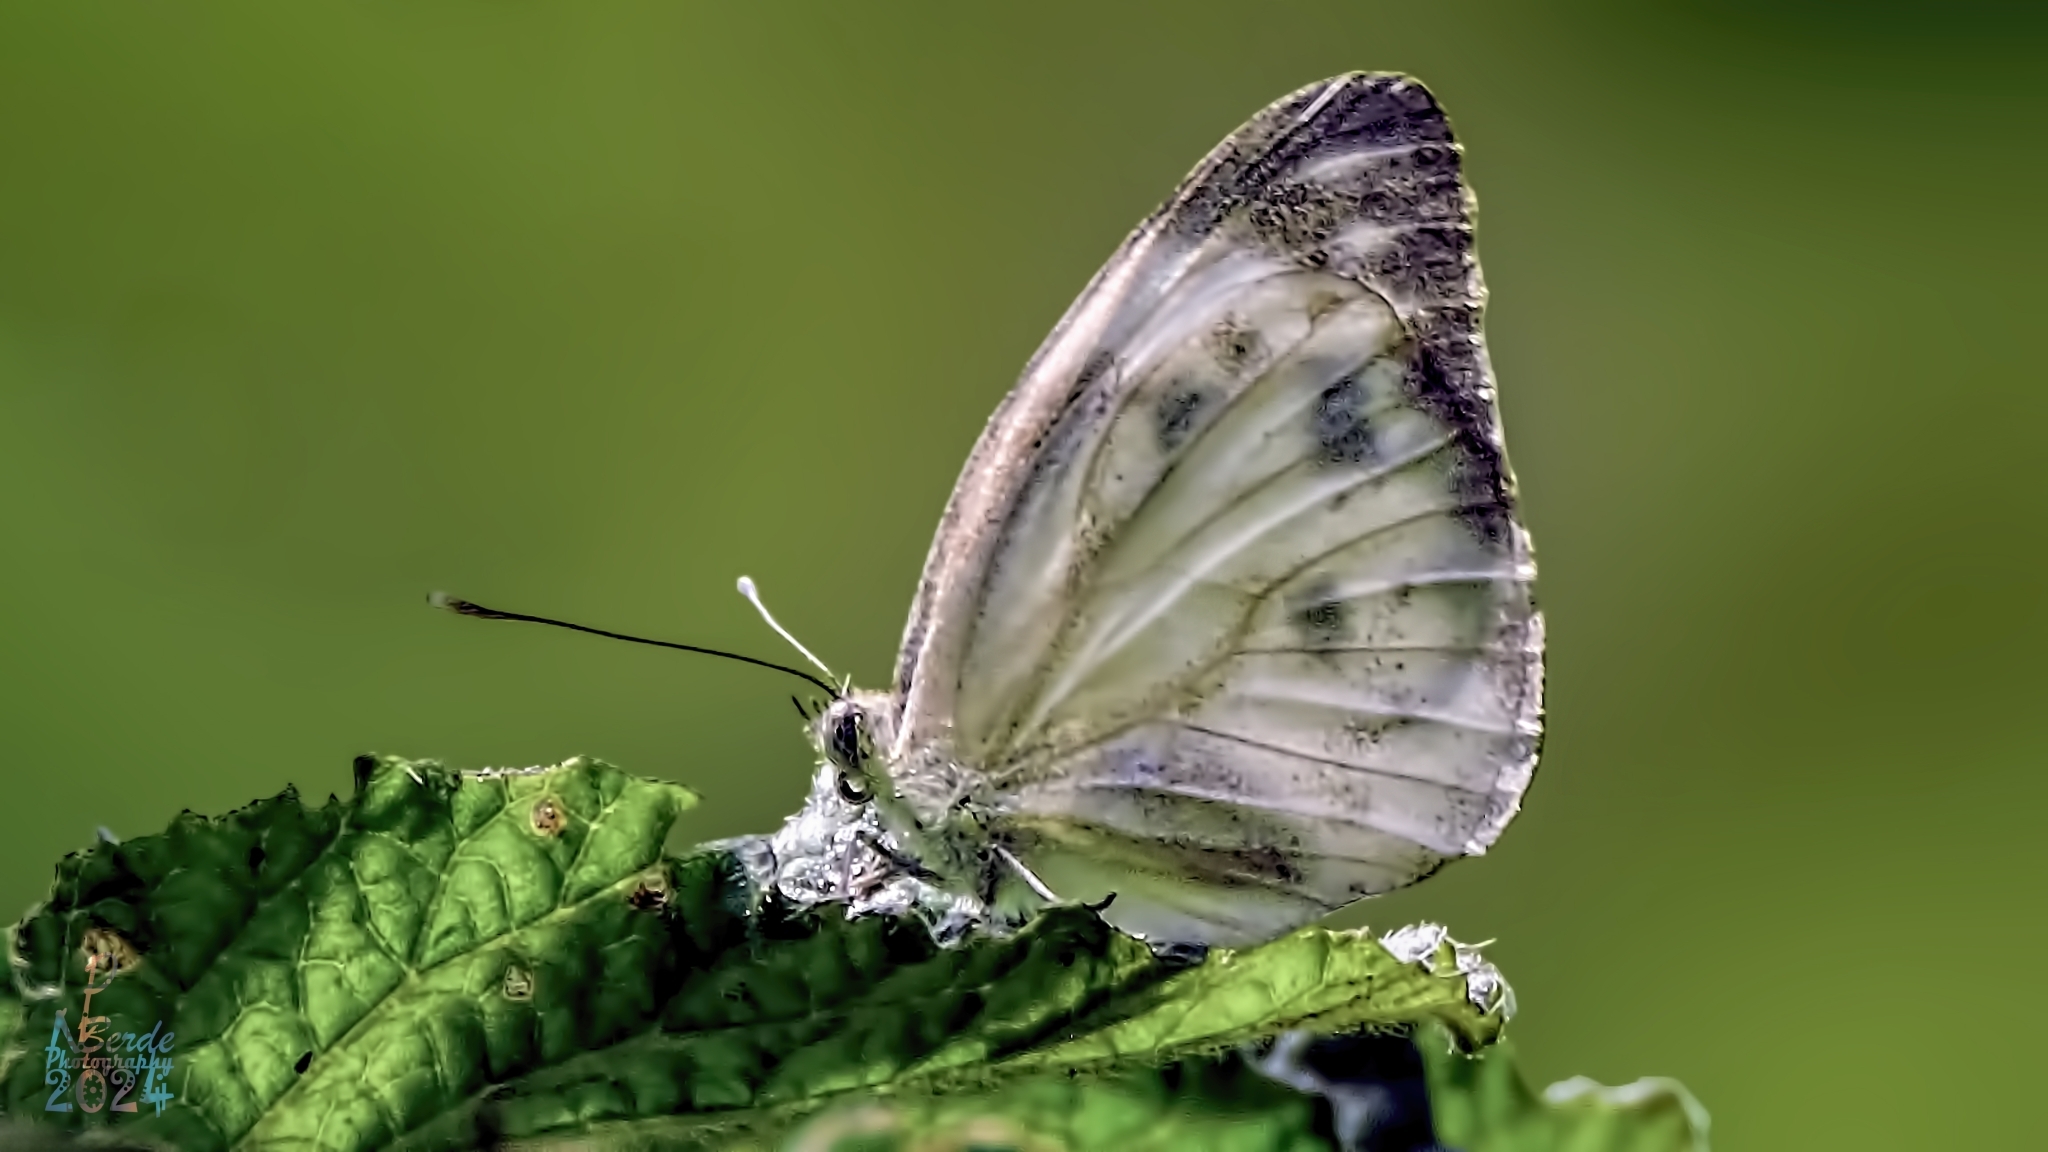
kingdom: Animalia
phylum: Arthropoda
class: Insecta
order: Lepidoptera
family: Pieridae
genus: Cepora
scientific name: Cepora nerissa
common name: Common gull
